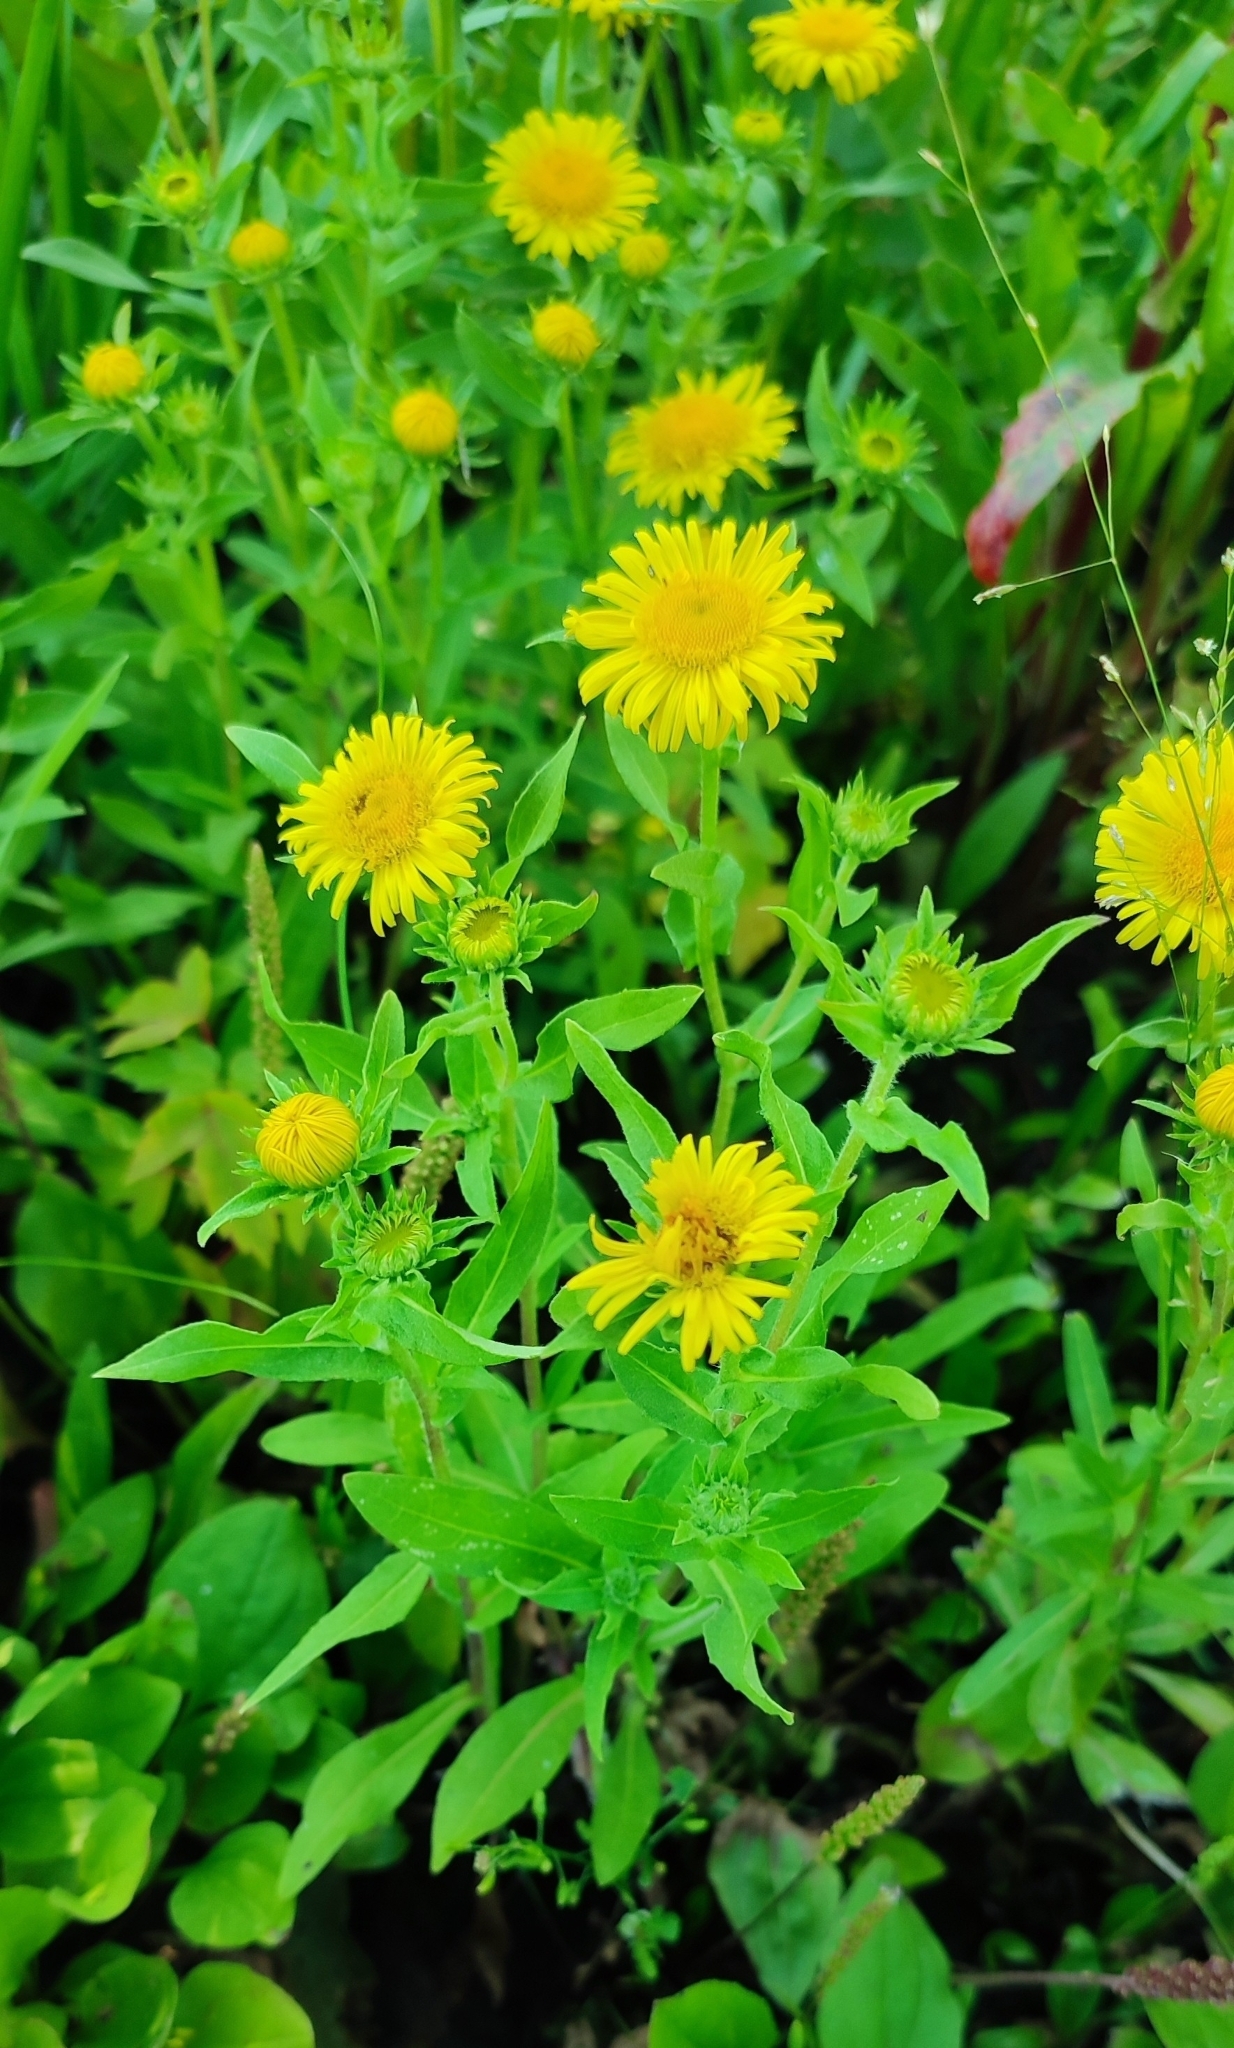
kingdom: Plantae
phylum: Tracheophyta
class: Magnoliopsida
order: Asterales
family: Asteraceae
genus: Pentanema
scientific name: Pentanema britannicum
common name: British elecampane
